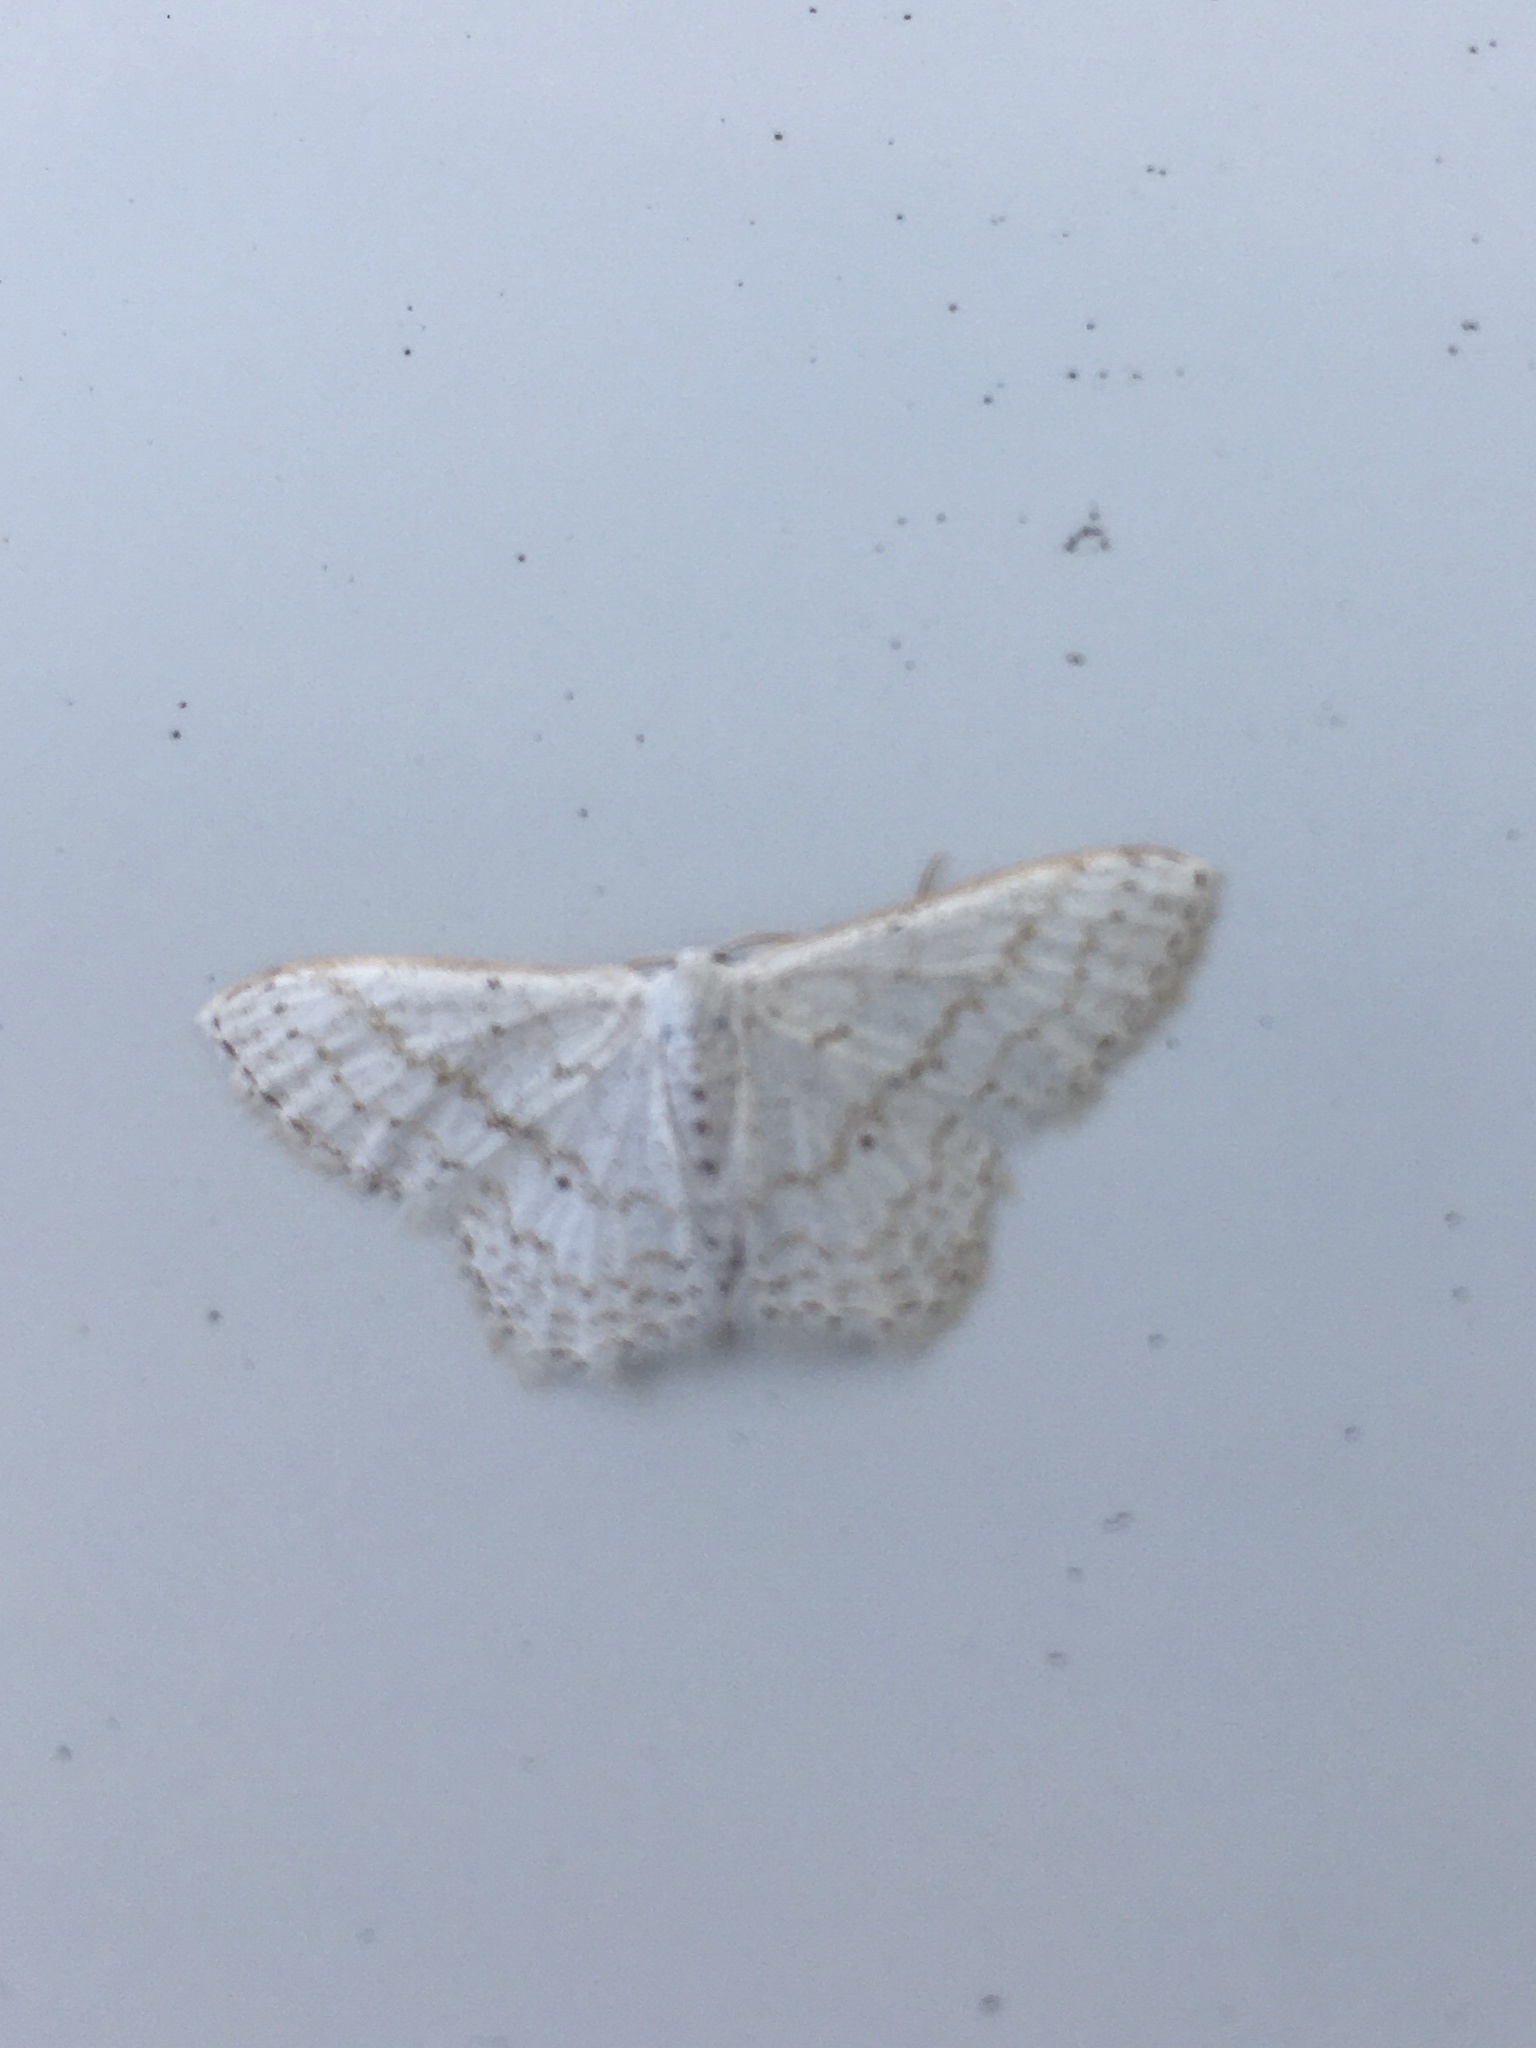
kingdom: Animalia
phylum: Arthropoda
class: Insecta
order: Lepidoptera
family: Geometridae
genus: Idaea
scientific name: Idaea tacturata
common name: Dot-lined wave
